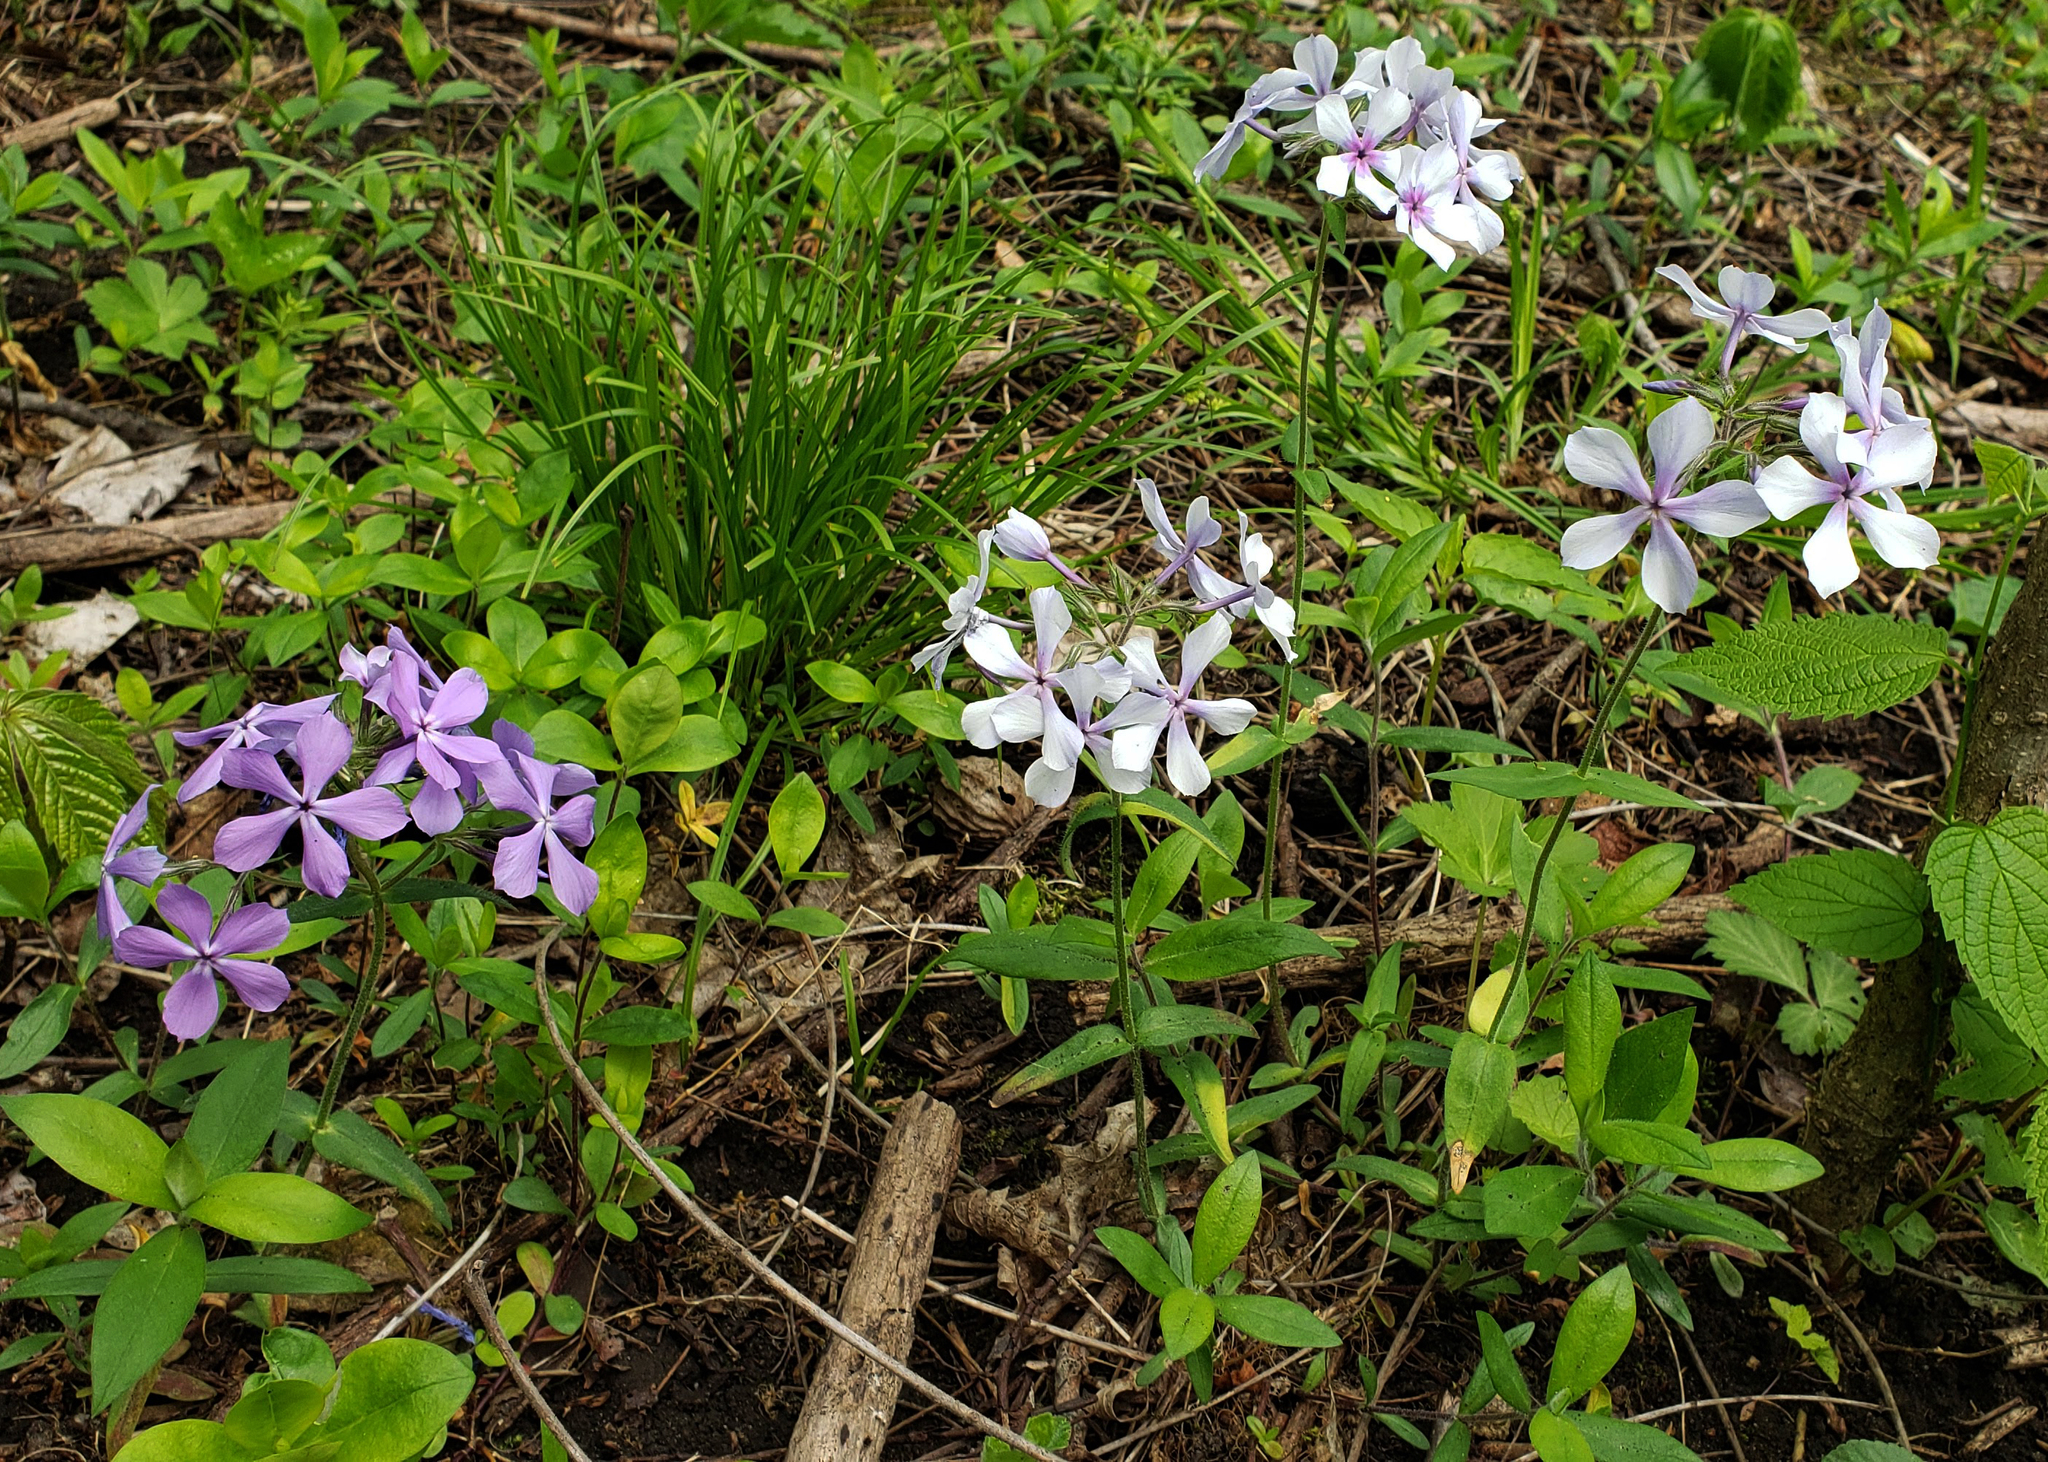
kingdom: Plantae
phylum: Tracheophyta
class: Magnoliopsida
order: Ericales
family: Polemoniaceae
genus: Phlox
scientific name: Phlox divaricata
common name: Blue phlox
